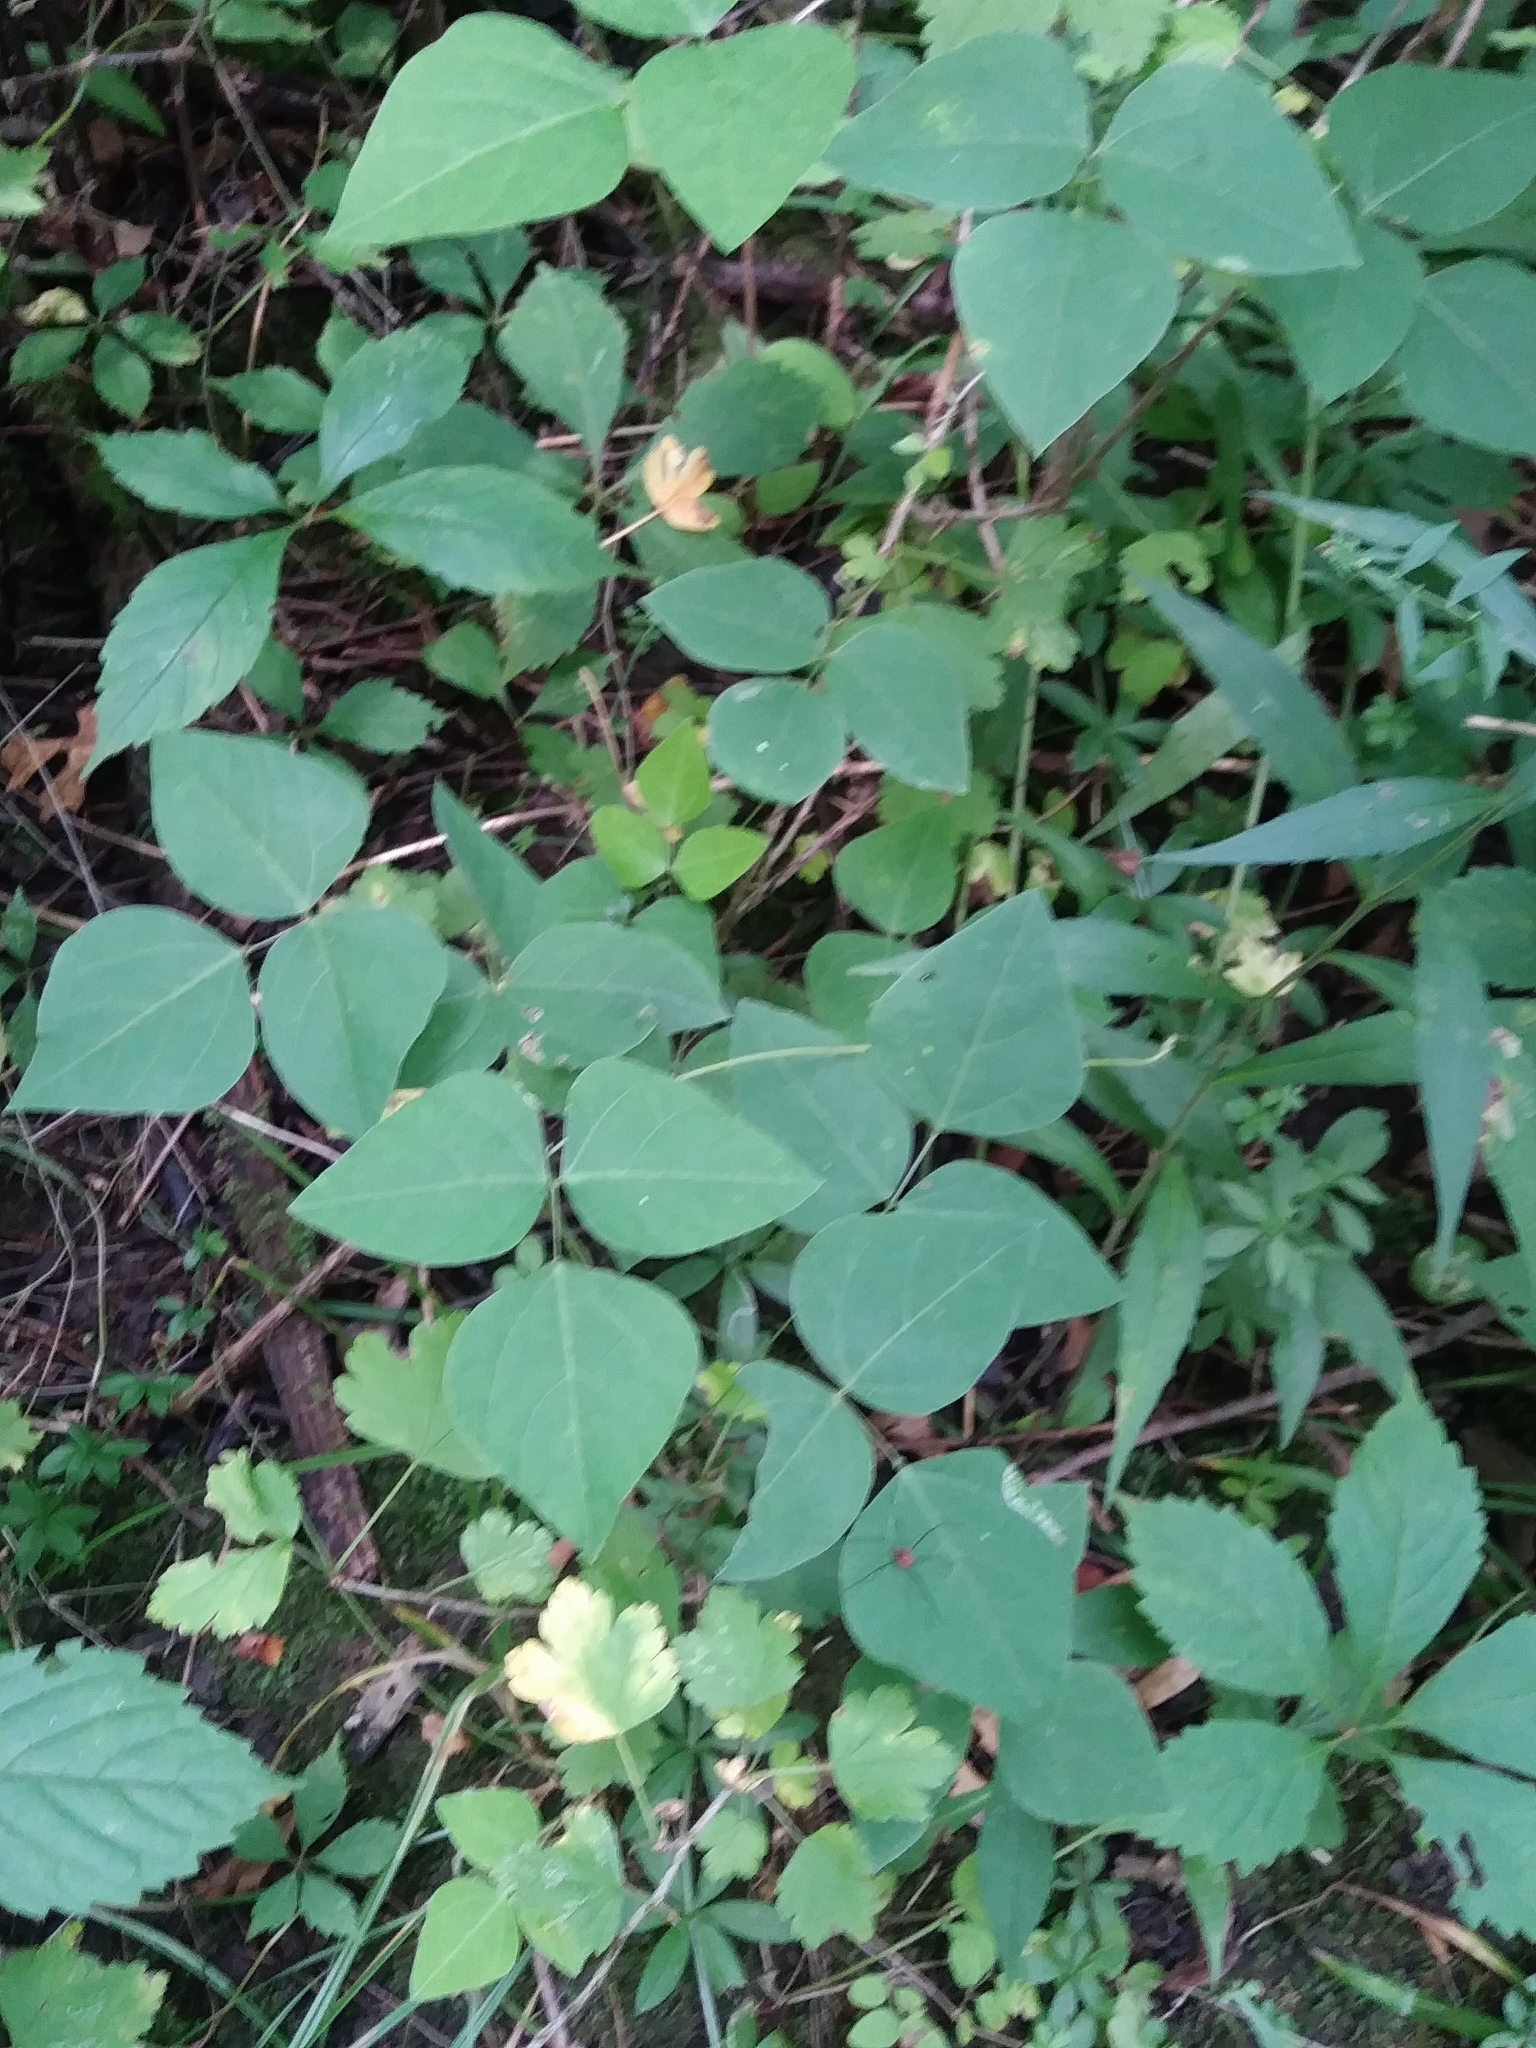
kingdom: Plantae
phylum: Tracheophyta
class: Magnoliopsida
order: Fabales
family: Fabaceae
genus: Amphicarpaea
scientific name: Amphicarpaea bracteata
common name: American hog peanut
